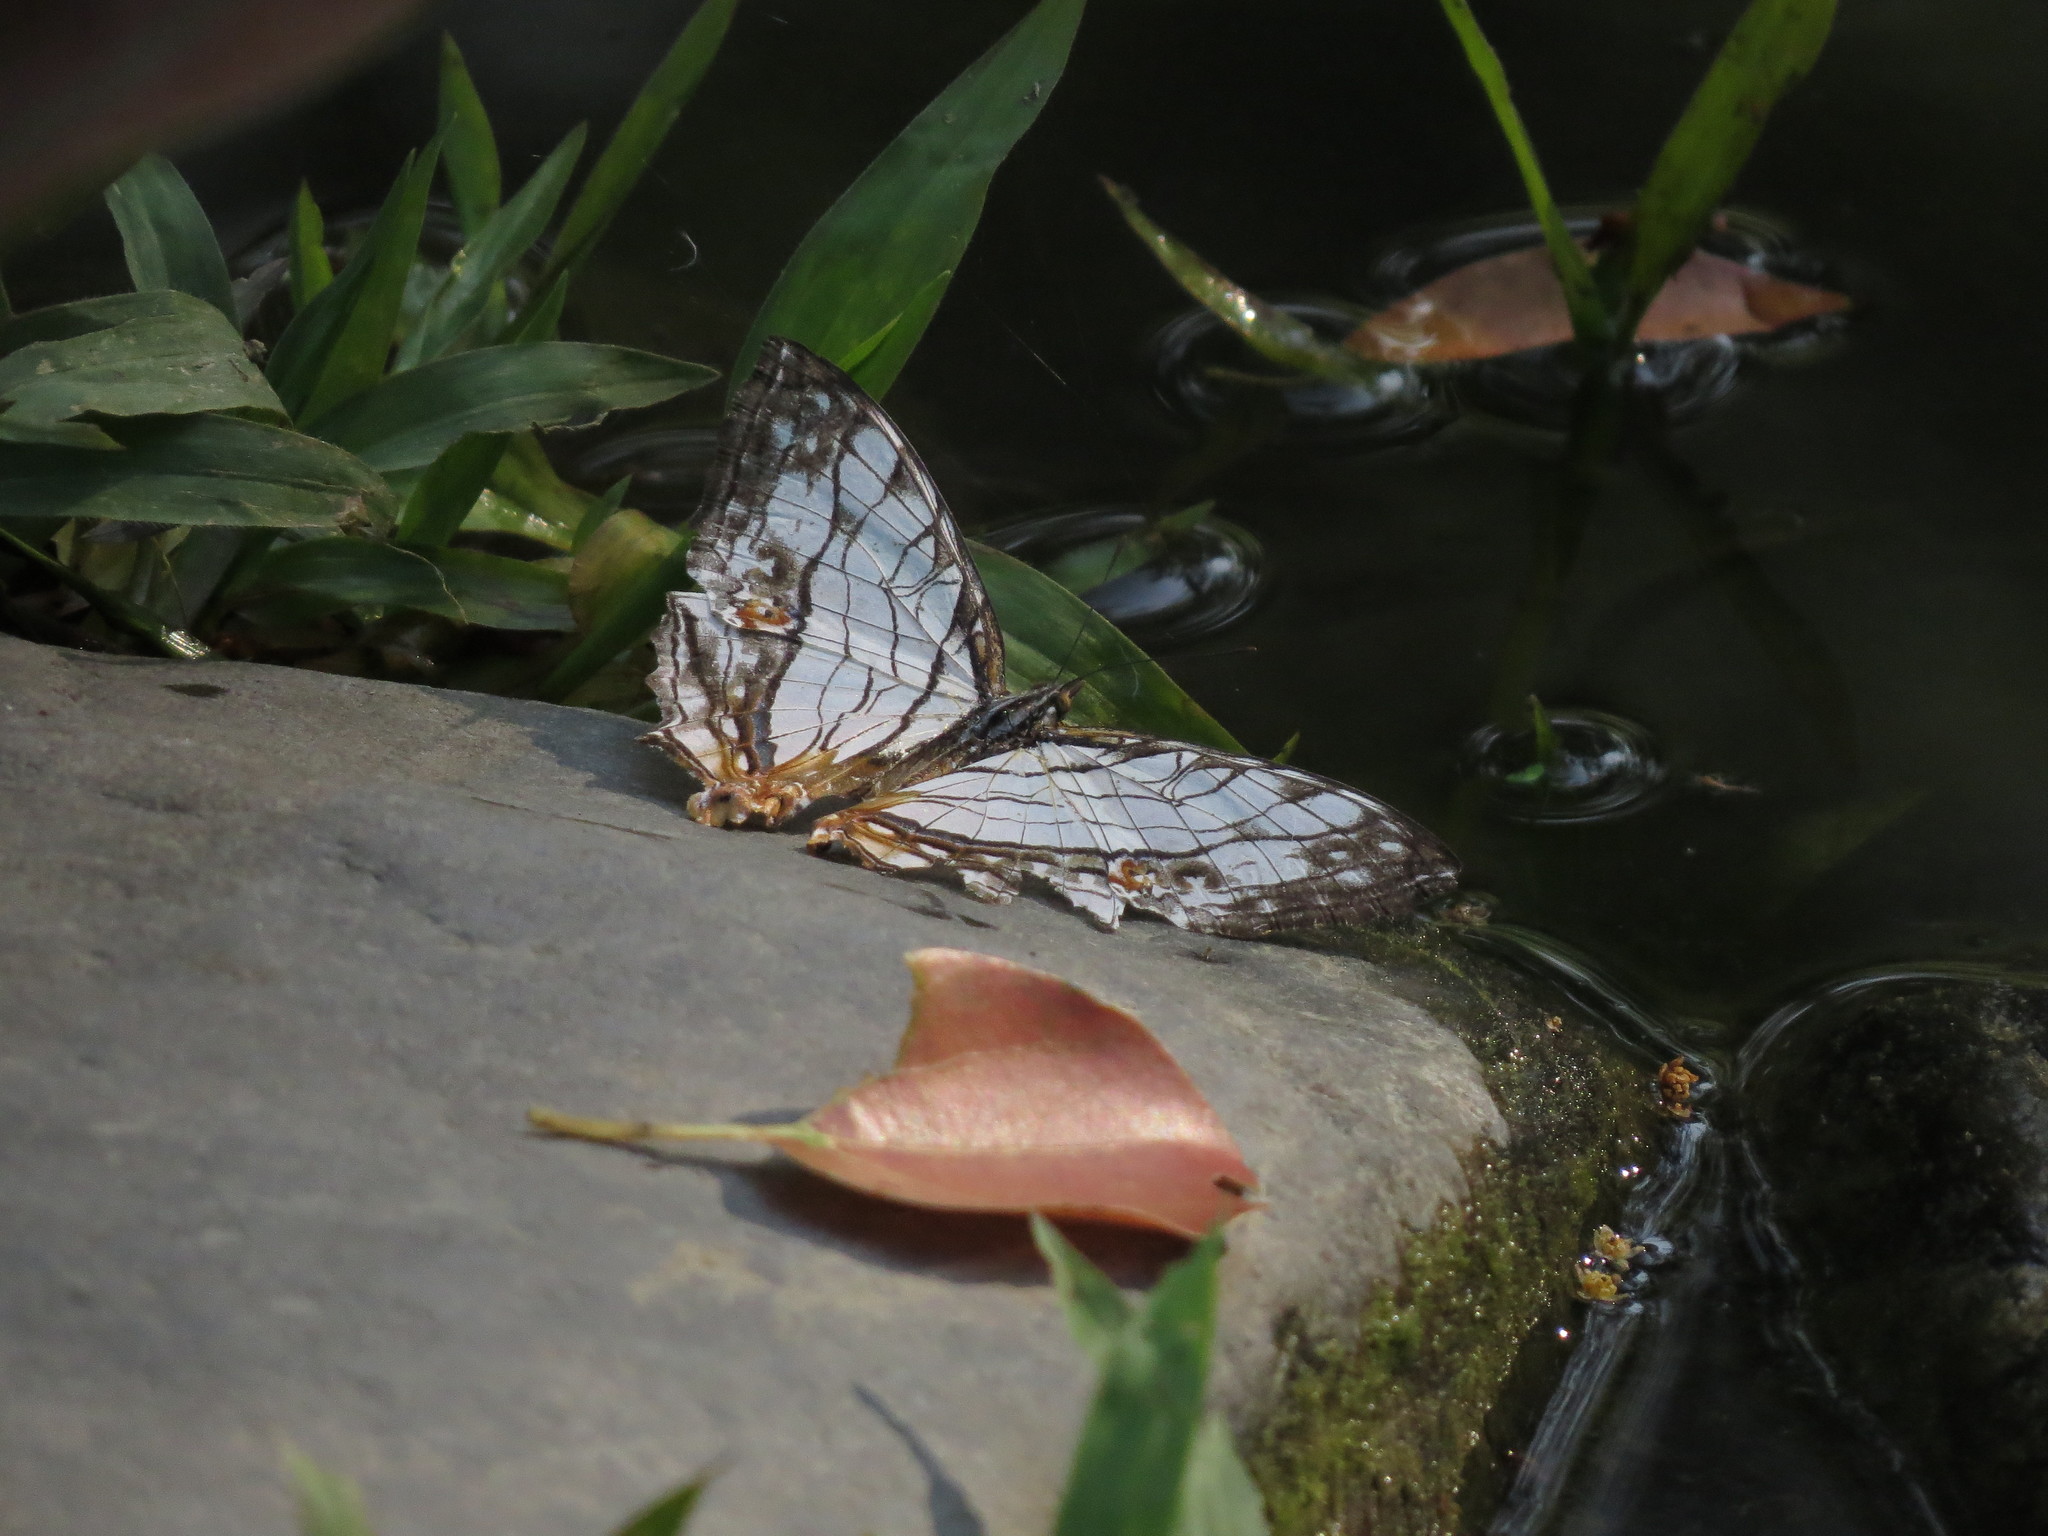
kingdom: Animalia
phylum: Arthropoda
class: Insecta
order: Lepidoptera
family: Nymphalidae
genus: Cyrestis
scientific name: Cyrestis thyodamas
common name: Common mapwing
